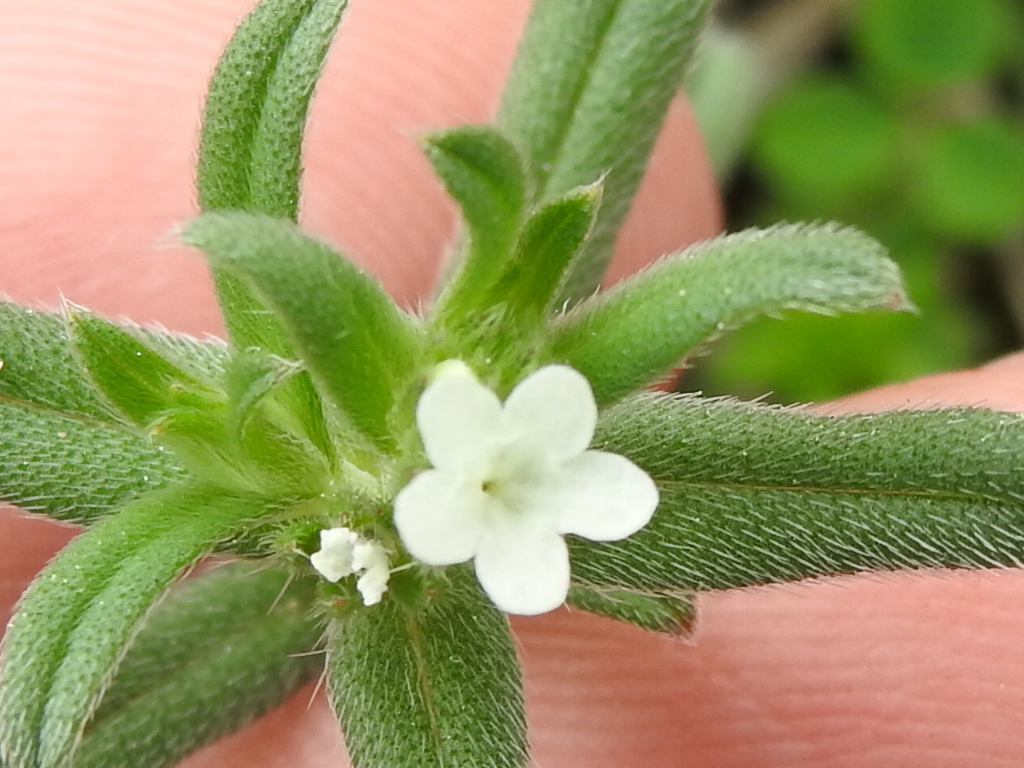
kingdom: Plantae
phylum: Tracheophyta
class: Magnoliopsida
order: Boraginales
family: Boraginaceae
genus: Buglossoides
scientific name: Buglossoides arvensis
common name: Corn gromwell
